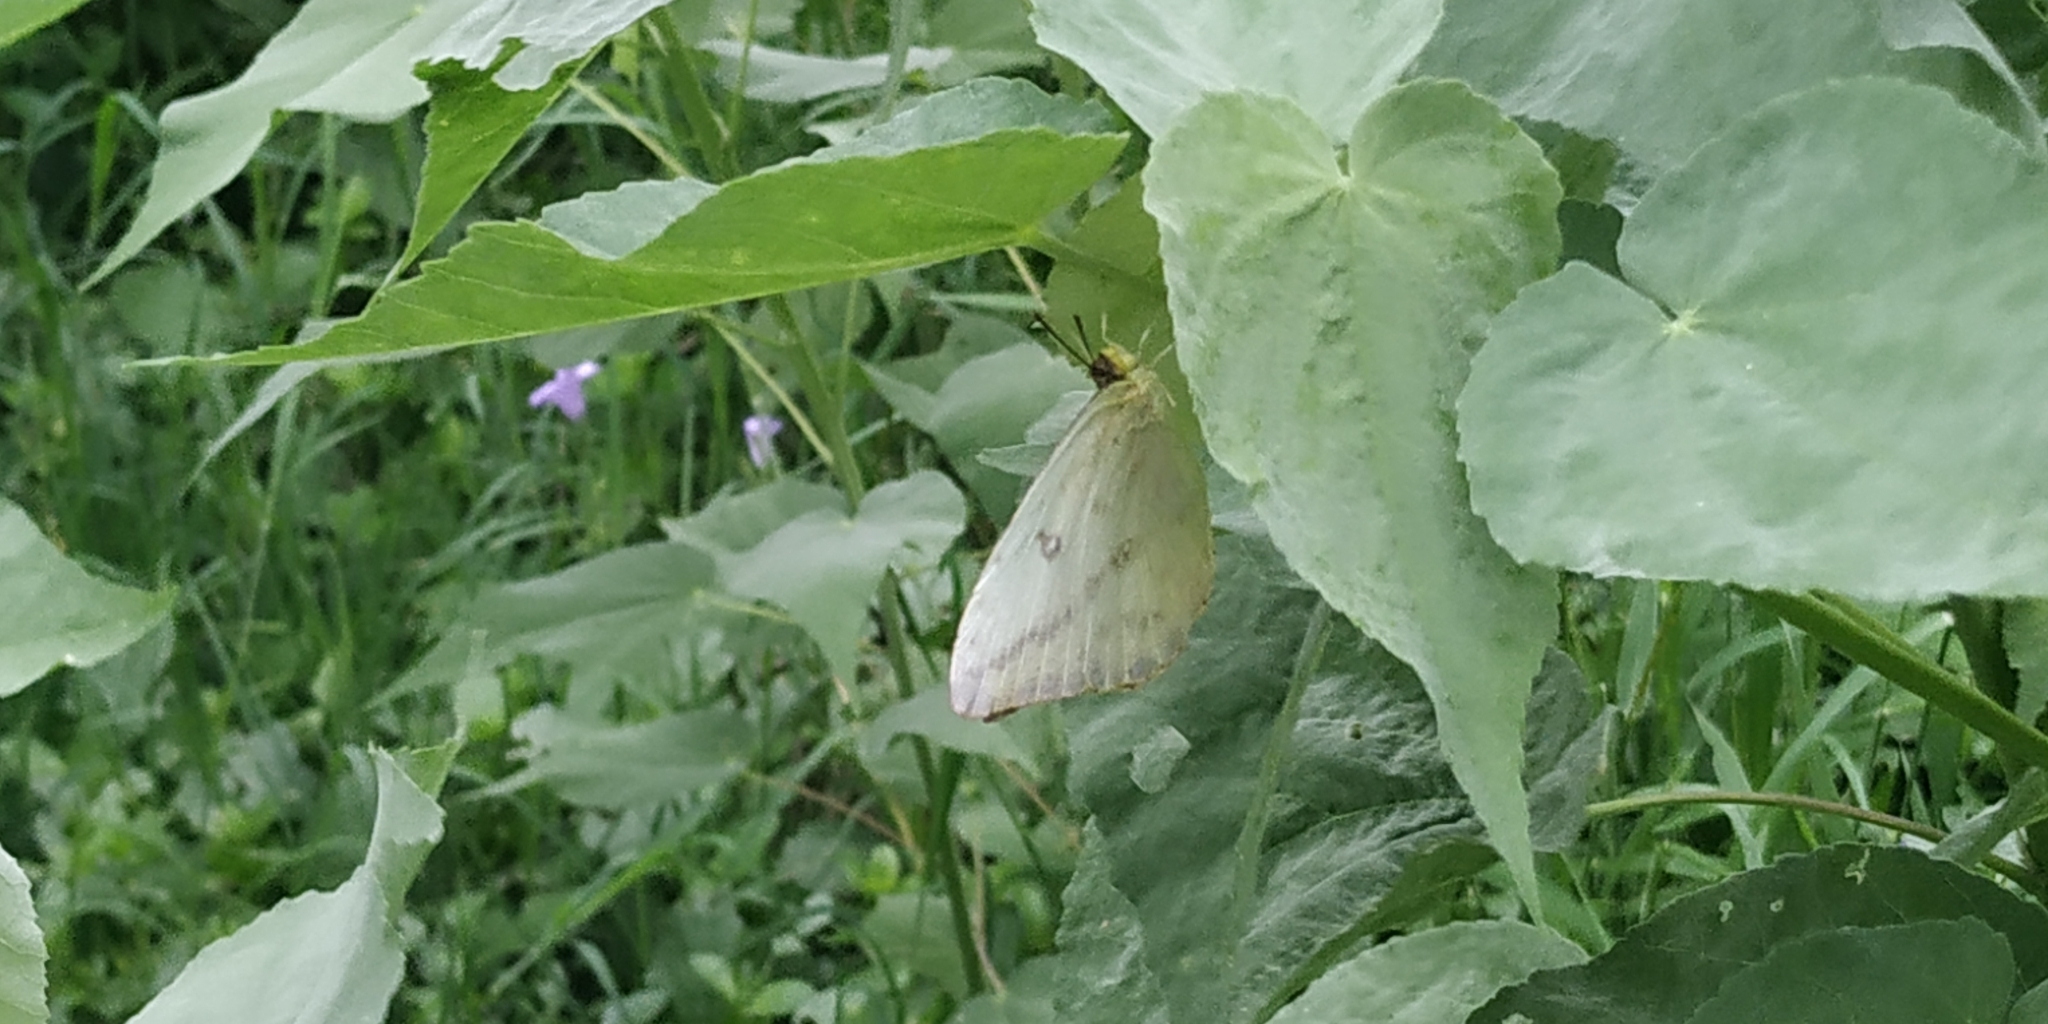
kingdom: Animalia
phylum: Arthropoda
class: Insecta
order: Lepidoptera
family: Pieridae
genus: Phoebis
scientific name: Phoebis agarithe
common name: Large orange sulphur
